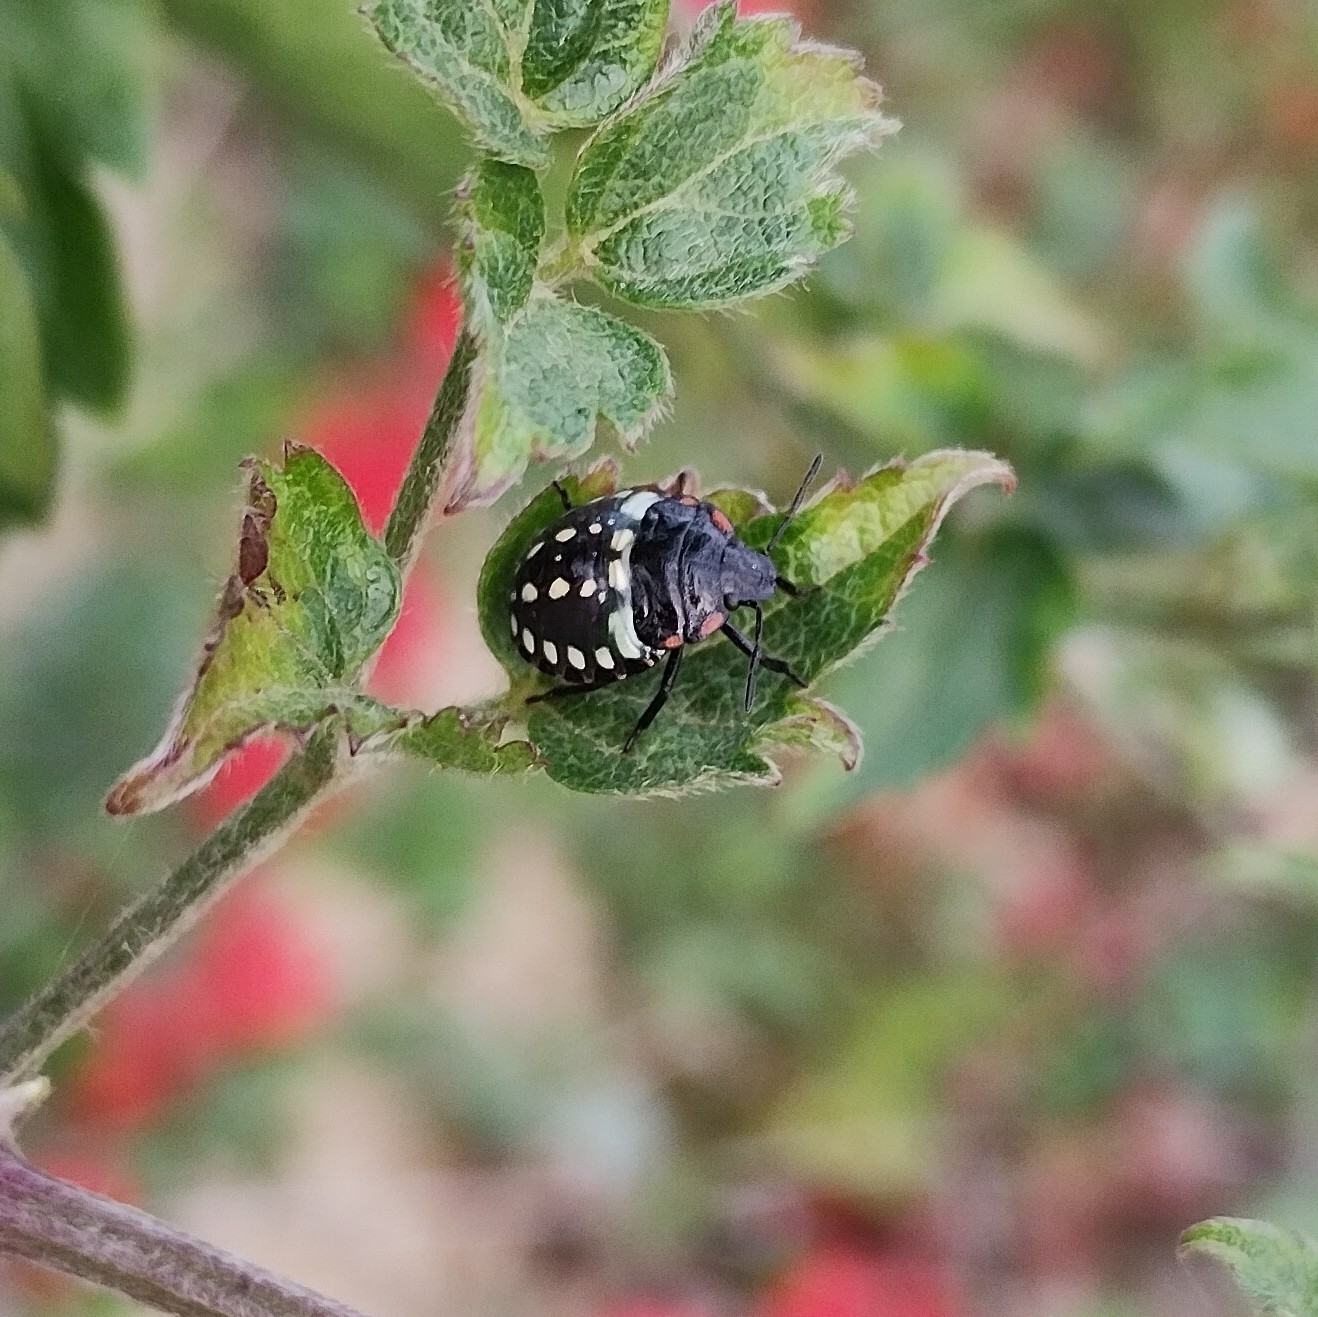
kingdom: Animalia
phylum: Arthropoda
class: Insecta
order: Hemiptera
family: Pentatomidae
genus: Nezara
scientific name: Nezara viridula
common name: Southern green stink bug
